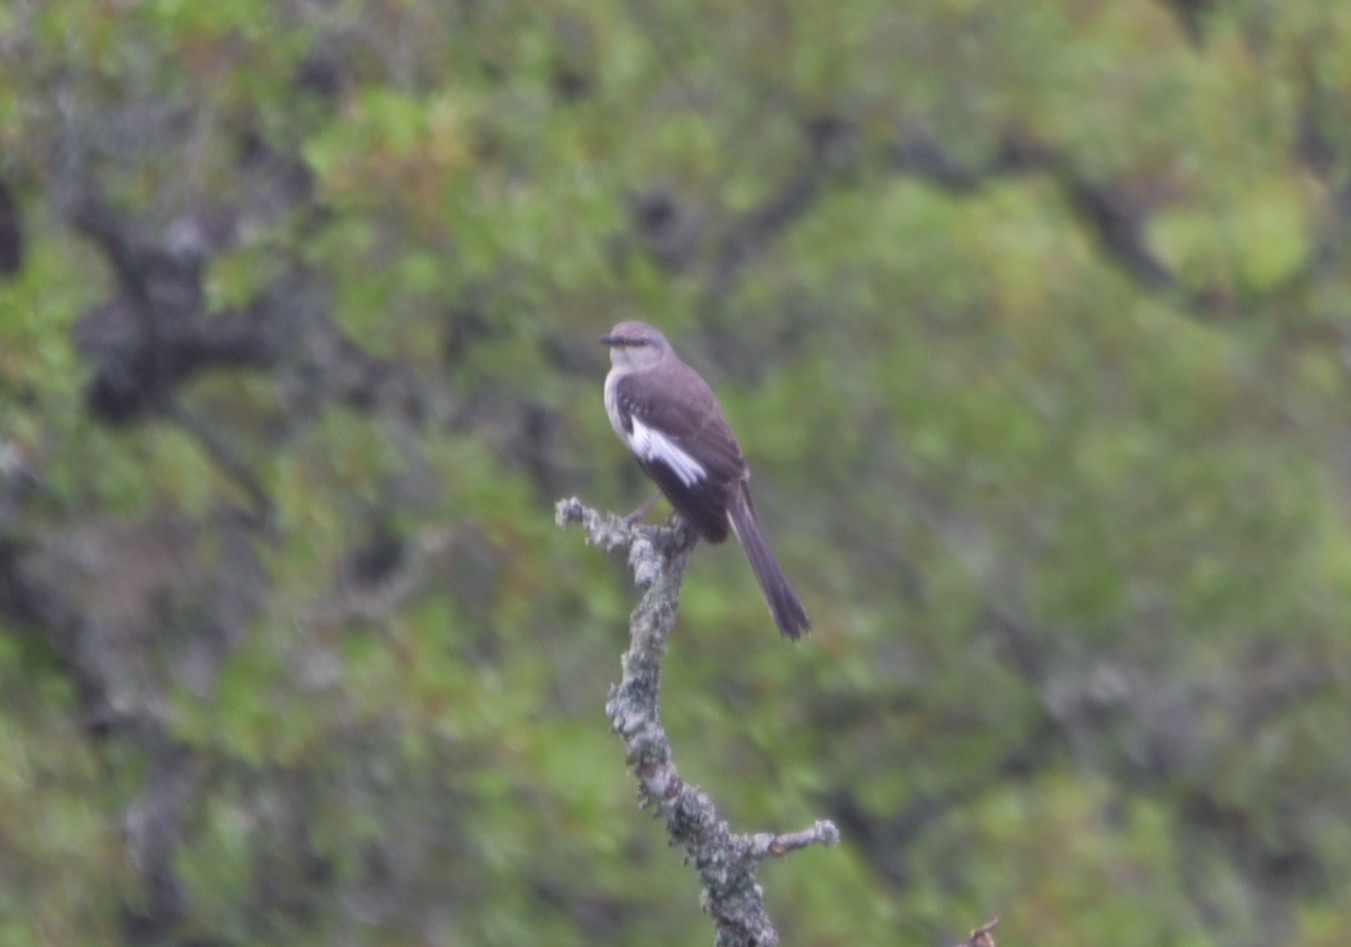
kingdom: Animalia
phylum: Chordata
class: Aves
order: Passeriformes
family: Mimidae
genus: Mimus
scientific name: Mimus polyglottos
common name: Northern mockingbird
